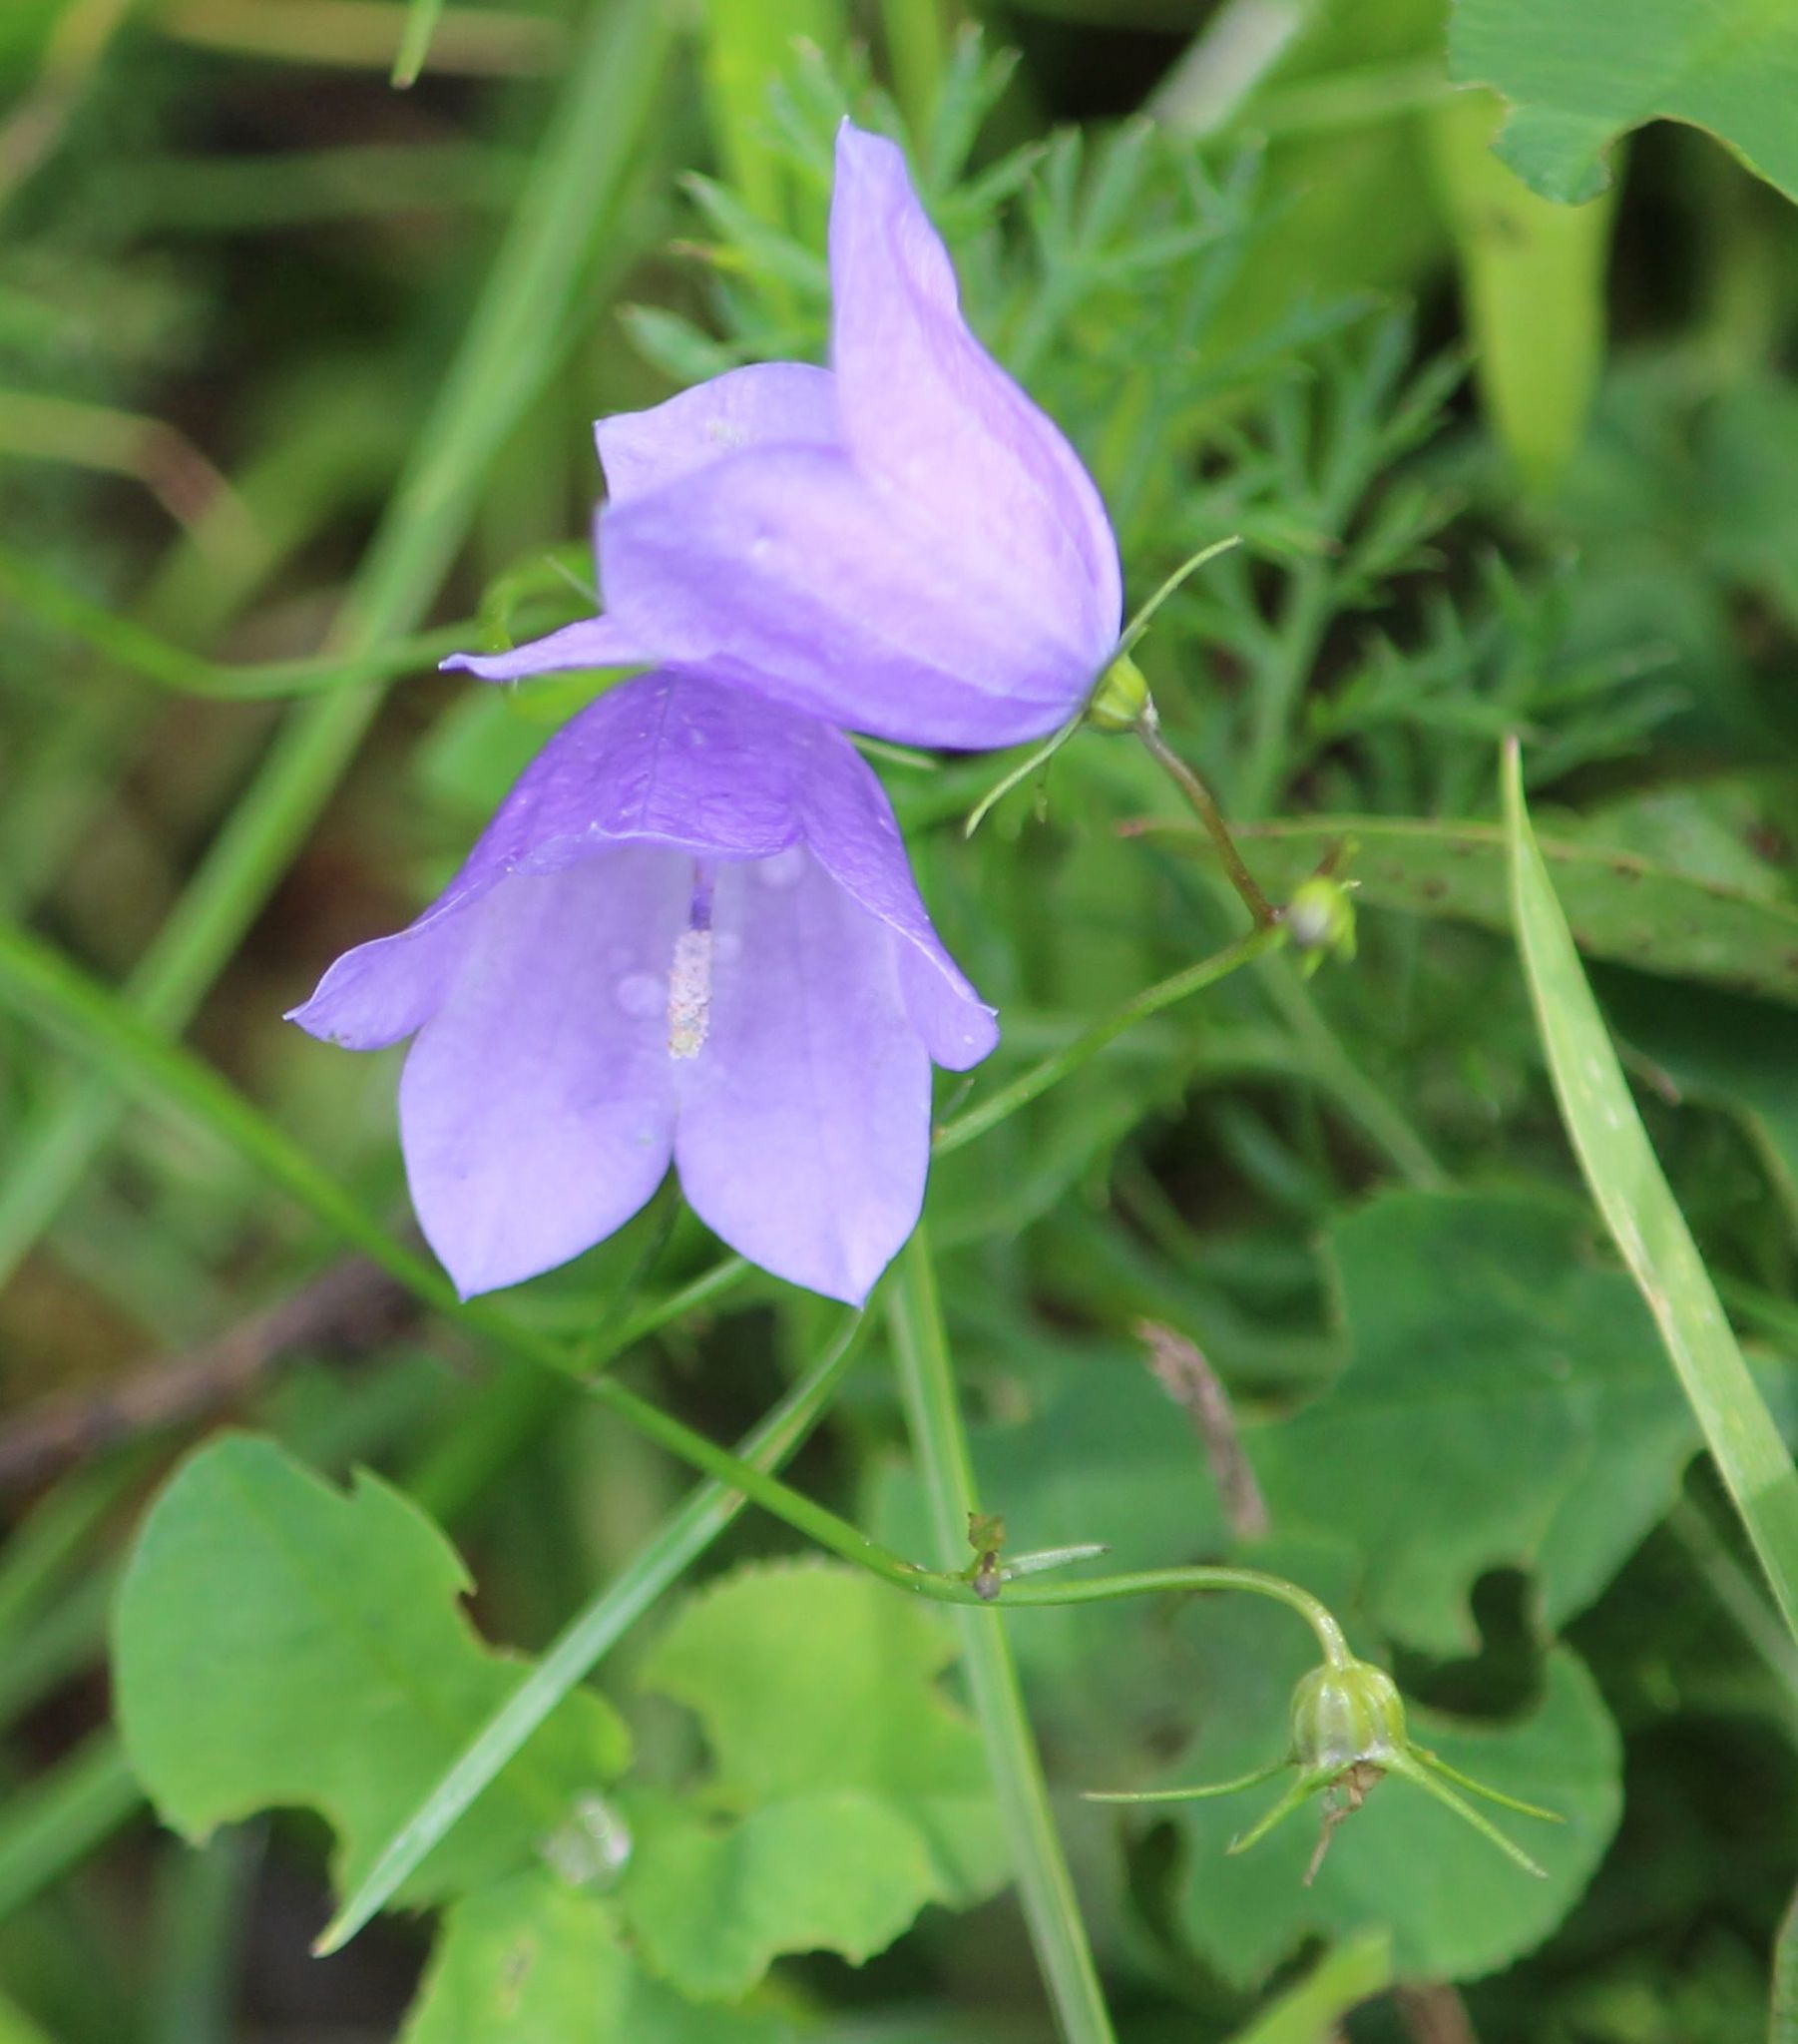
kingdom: Plantae
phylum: Tracheophyta
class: Magnoliopsida
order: Asterales
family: Campanulaceae
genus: Campanula
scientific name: Campanula rotundifolia
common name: Harebell
